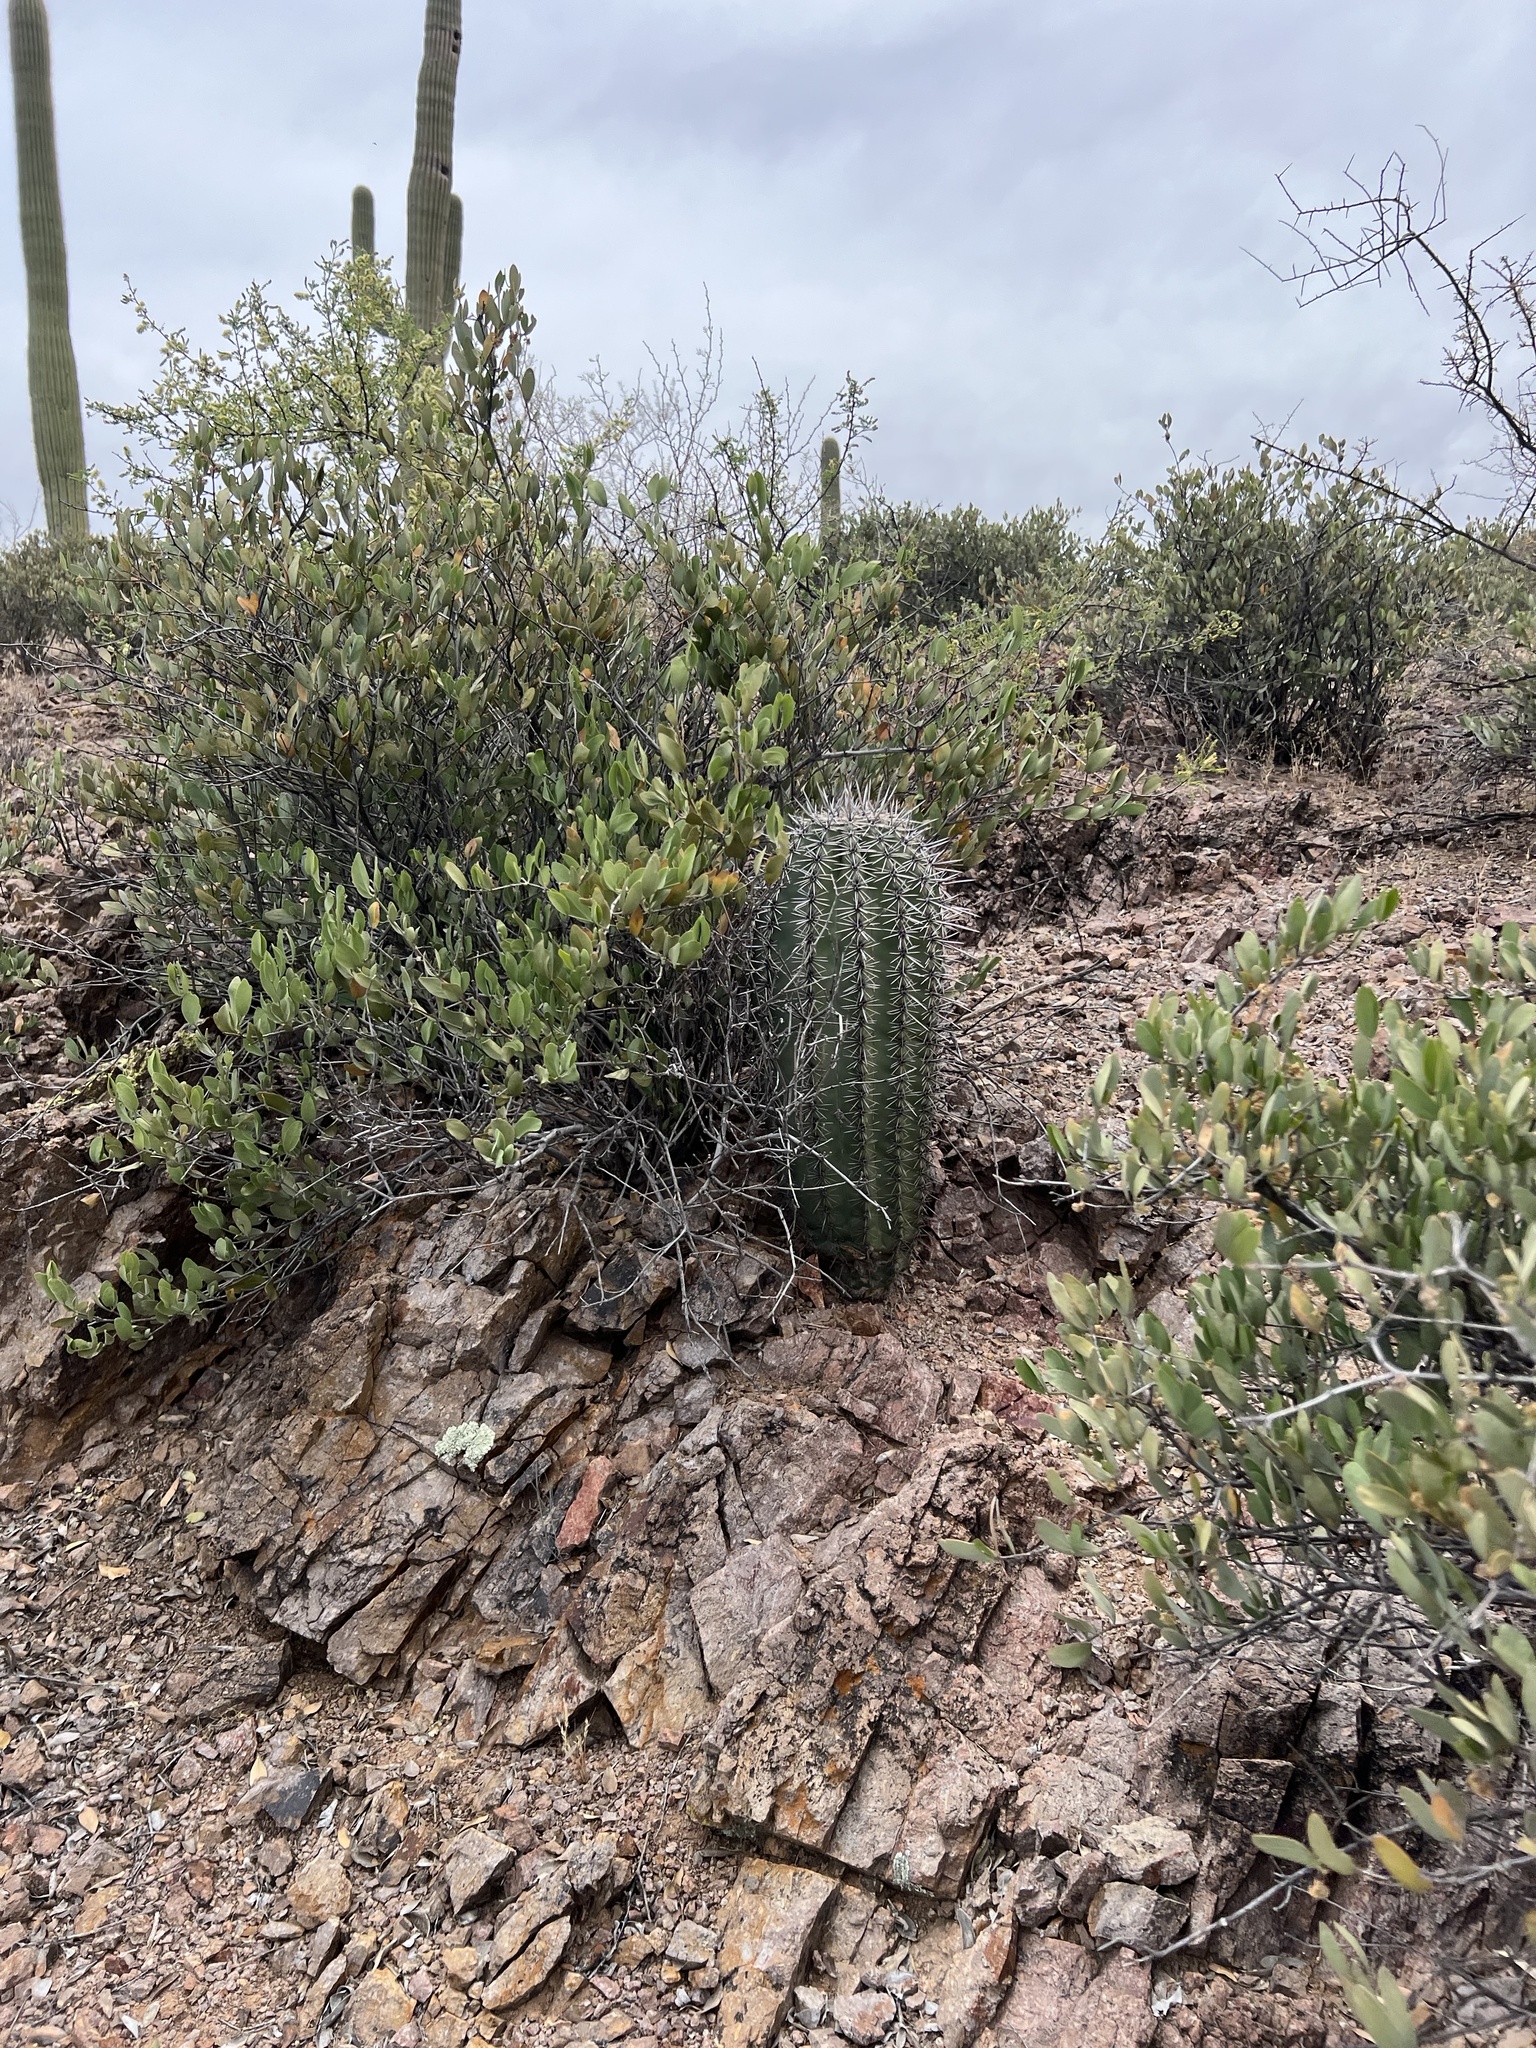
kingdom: Plantae
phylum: Tracheophyta
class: Magnoliopsida
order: Caryophyllales
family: Cactaceae
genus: Carnegiea
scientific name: Carnegiea gigantea
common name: Saguaro
